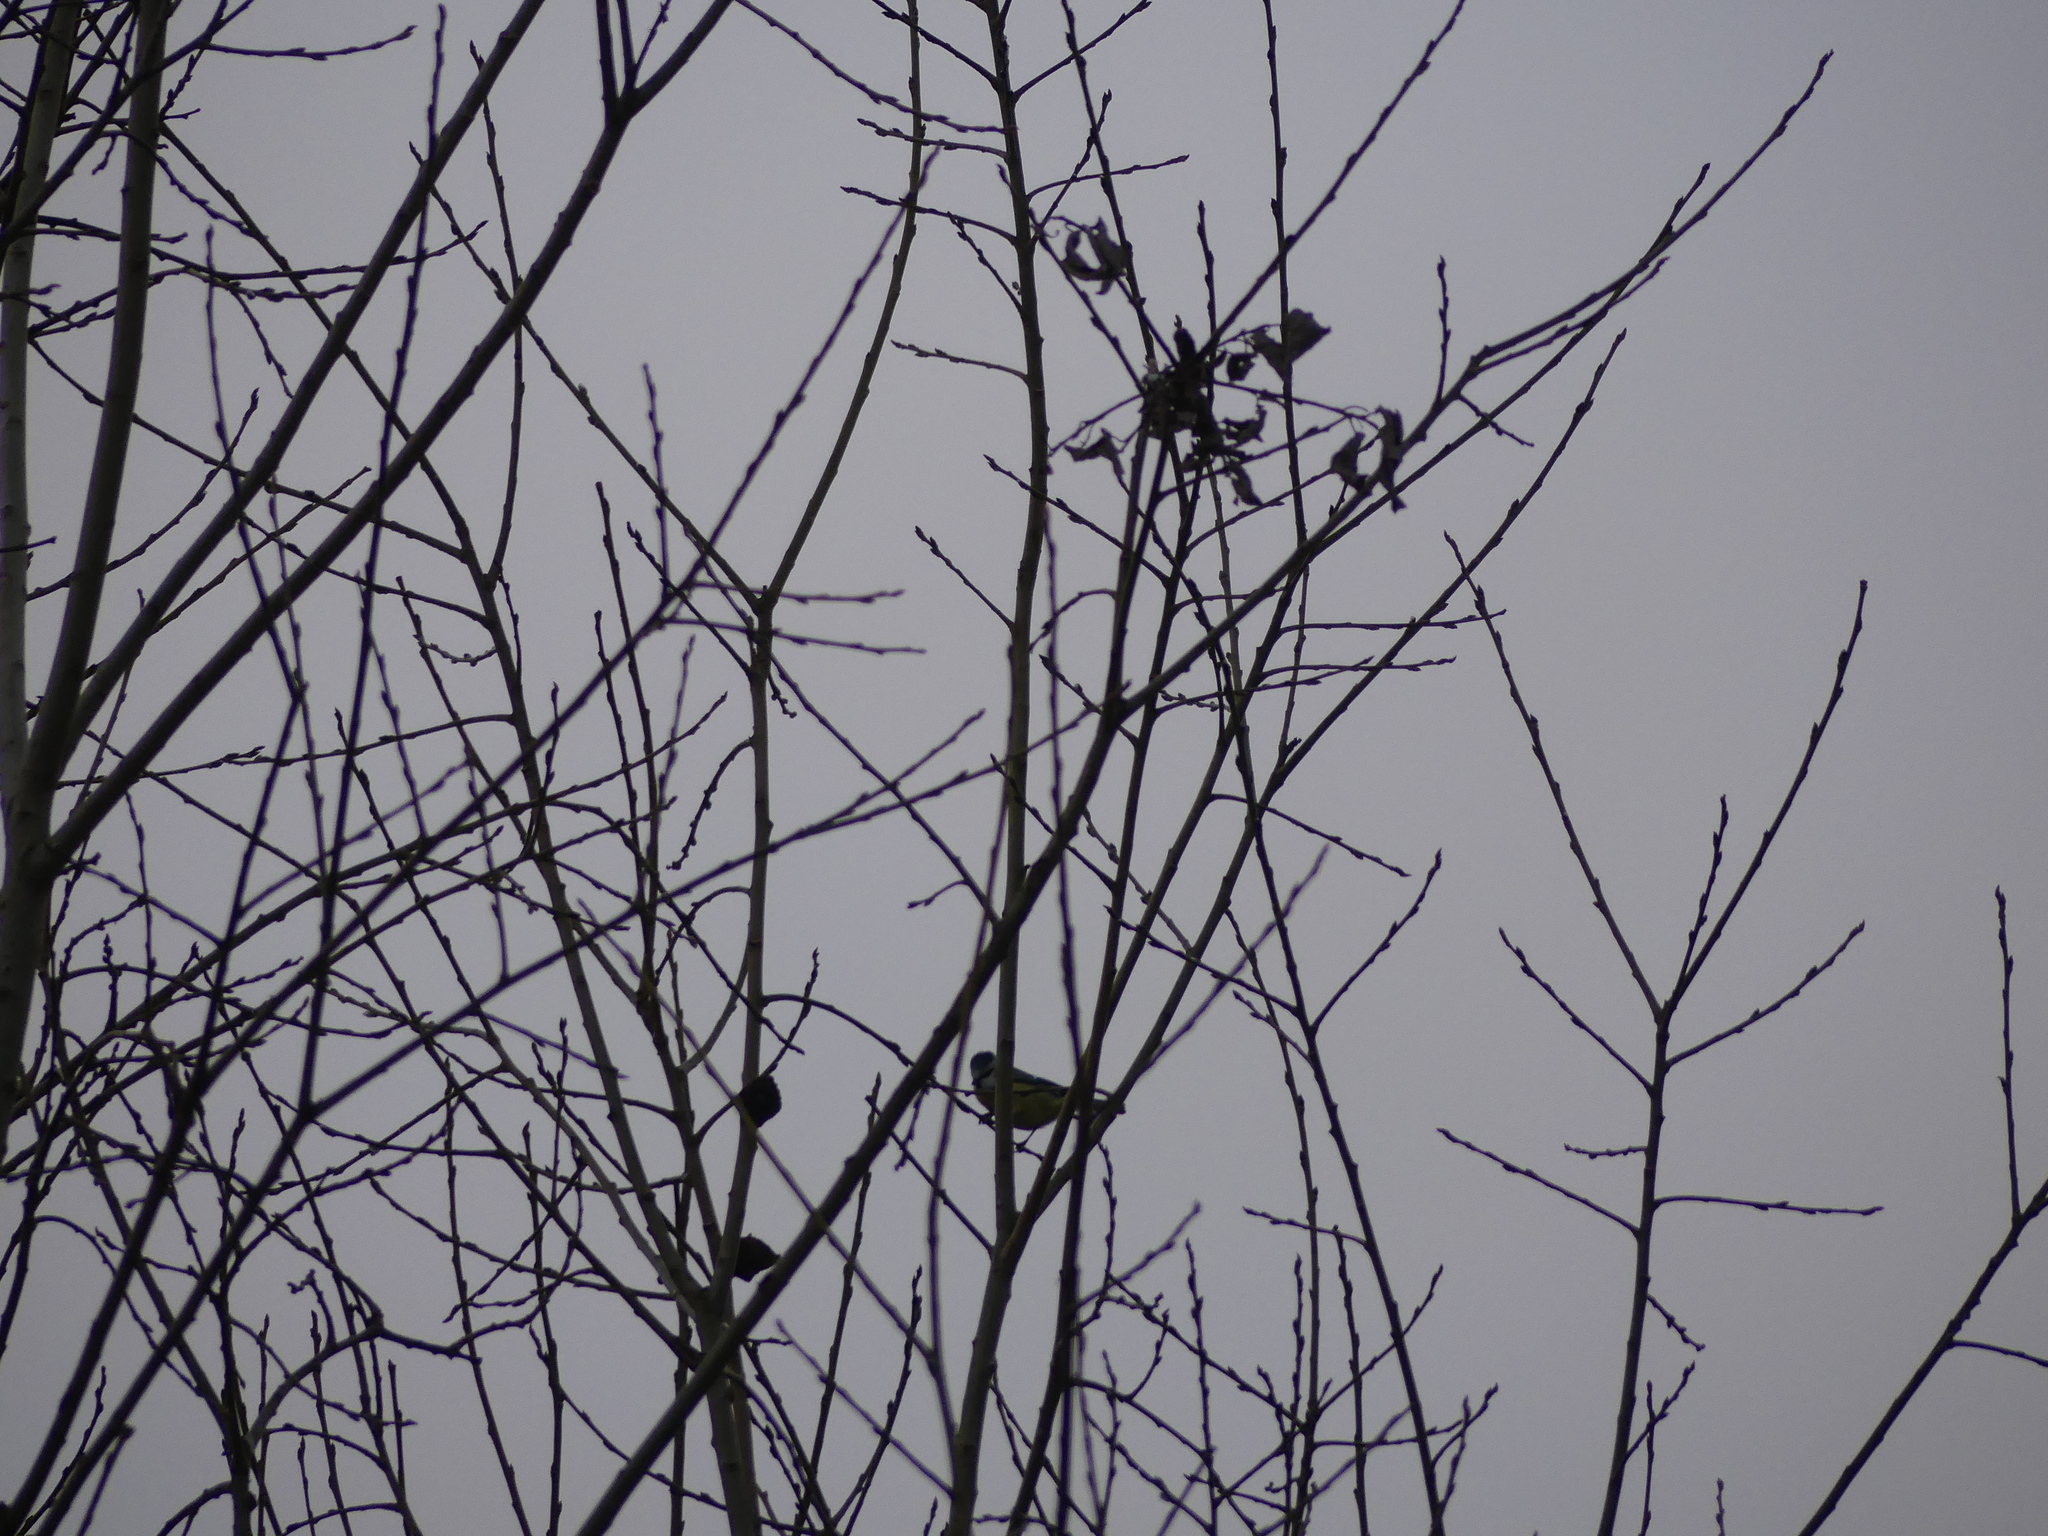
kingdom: Animalia
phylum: Chordata
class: Aves
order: Passeriformes
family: Paridae
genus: Cyanistes
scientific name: Cyanistes caeruleus
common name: Eurasian blue tit
